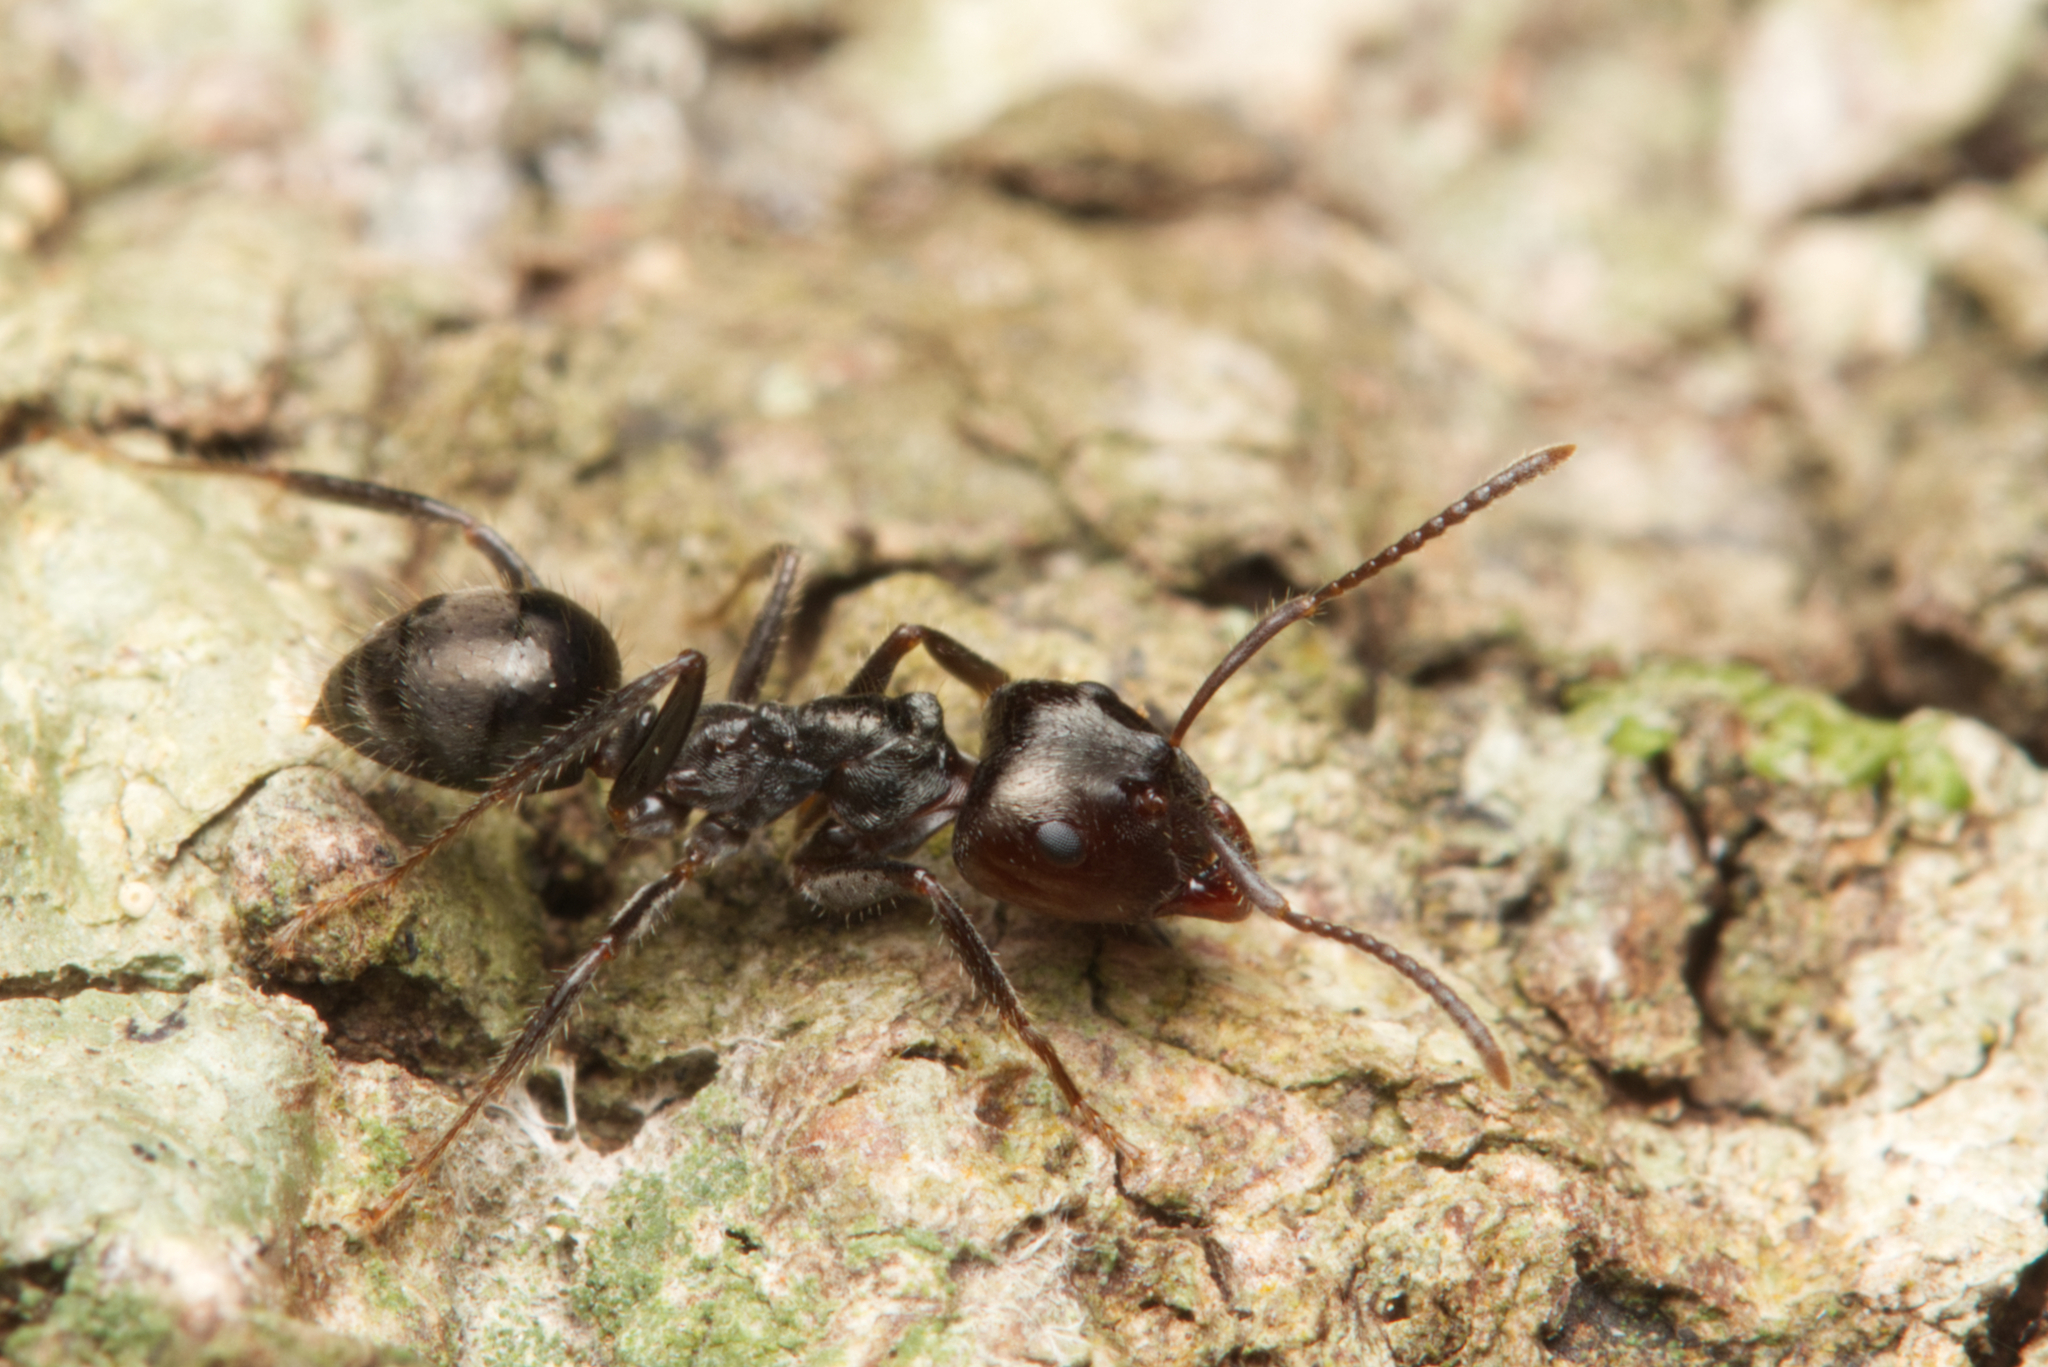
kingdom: Animalia
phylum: Arthropoda
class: Insecta
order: Hymenoptera
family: Formicidae
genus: Notoncus
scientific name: Notoncus capitatus
